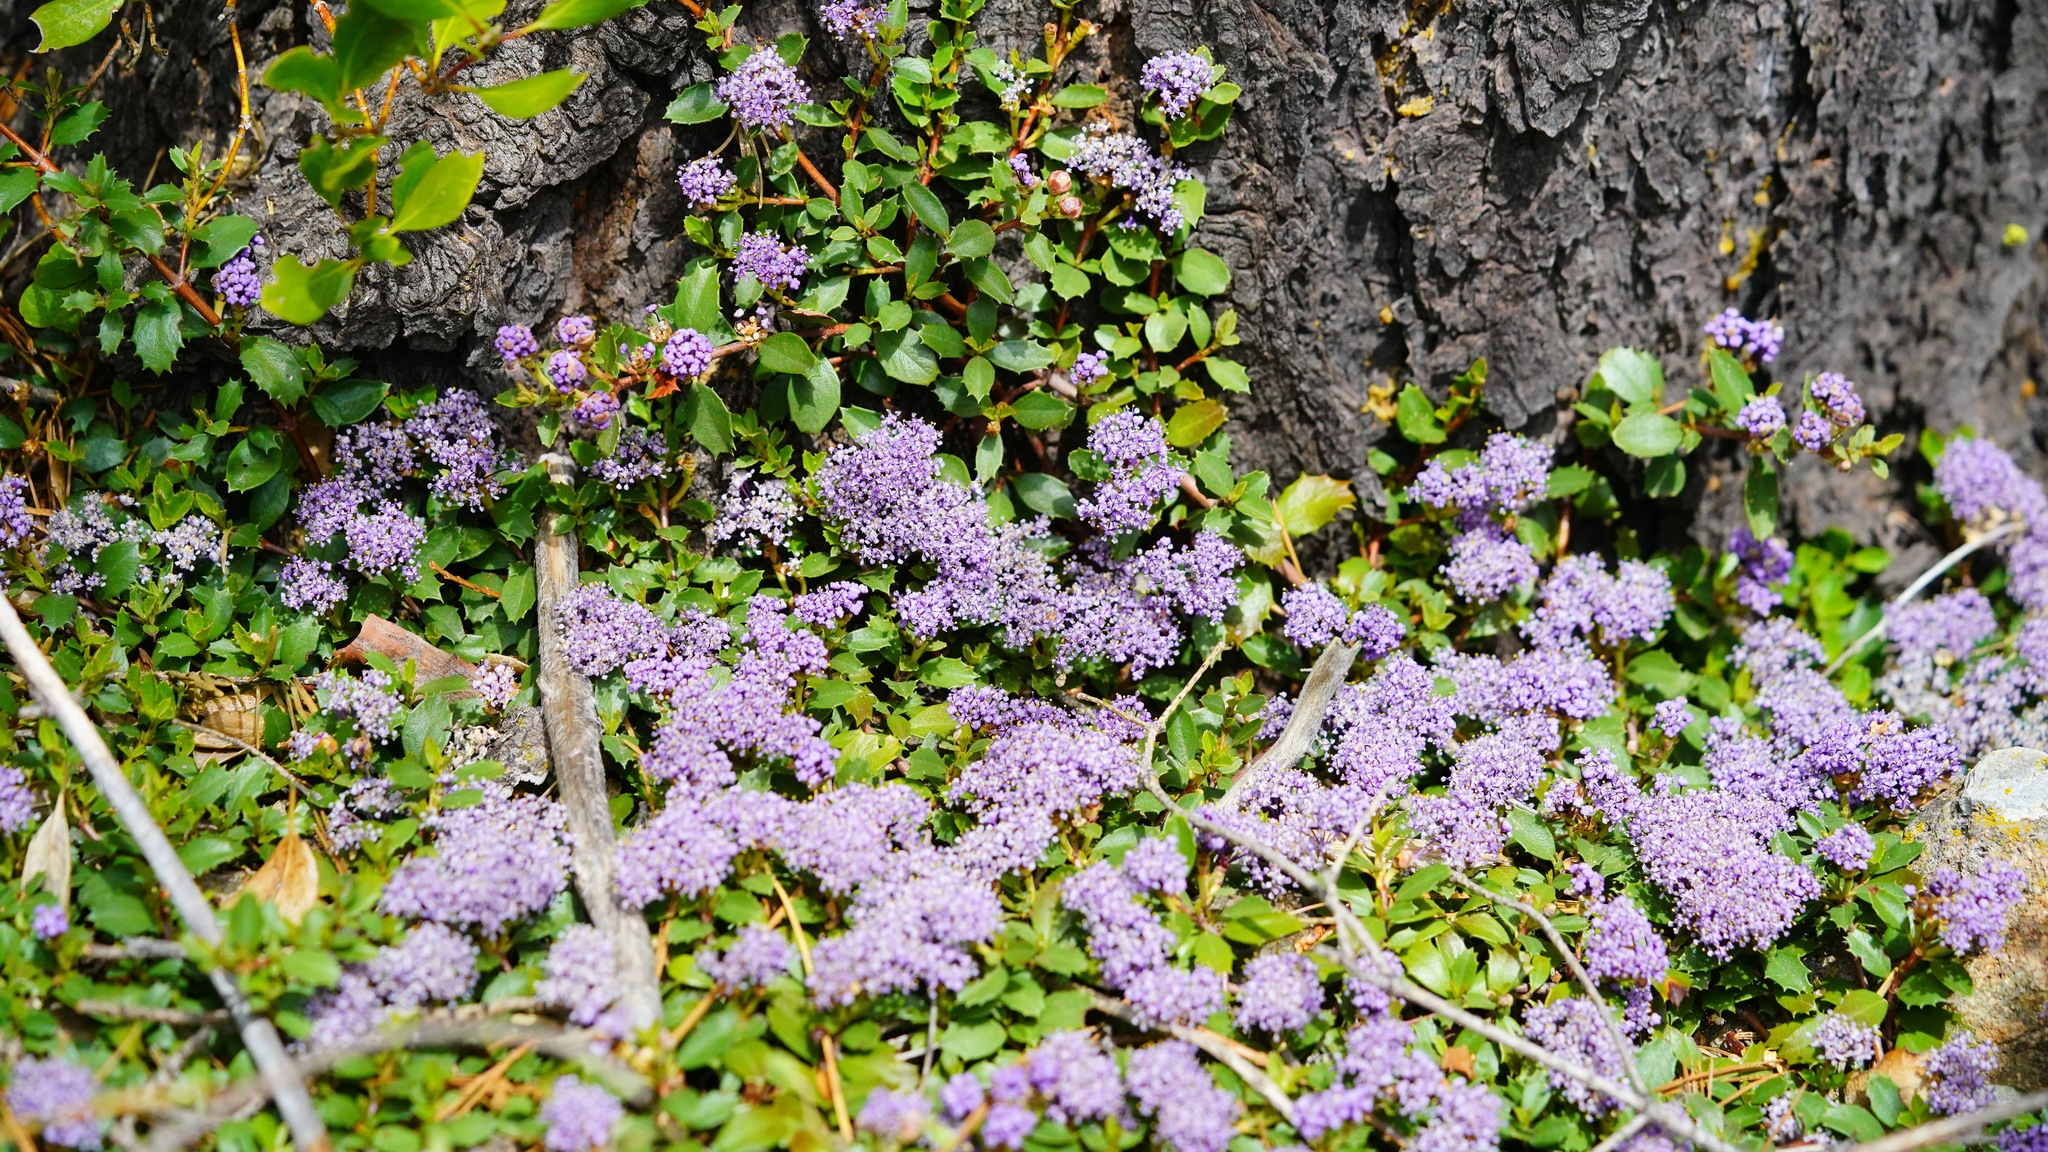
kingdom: Plantae
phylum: Tracheophyta
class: Magnoliopsida
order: Rosales
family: Rhamnaceae
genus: Ceanothus
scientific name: Ceanothus prostratus
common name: Mahala-mat
